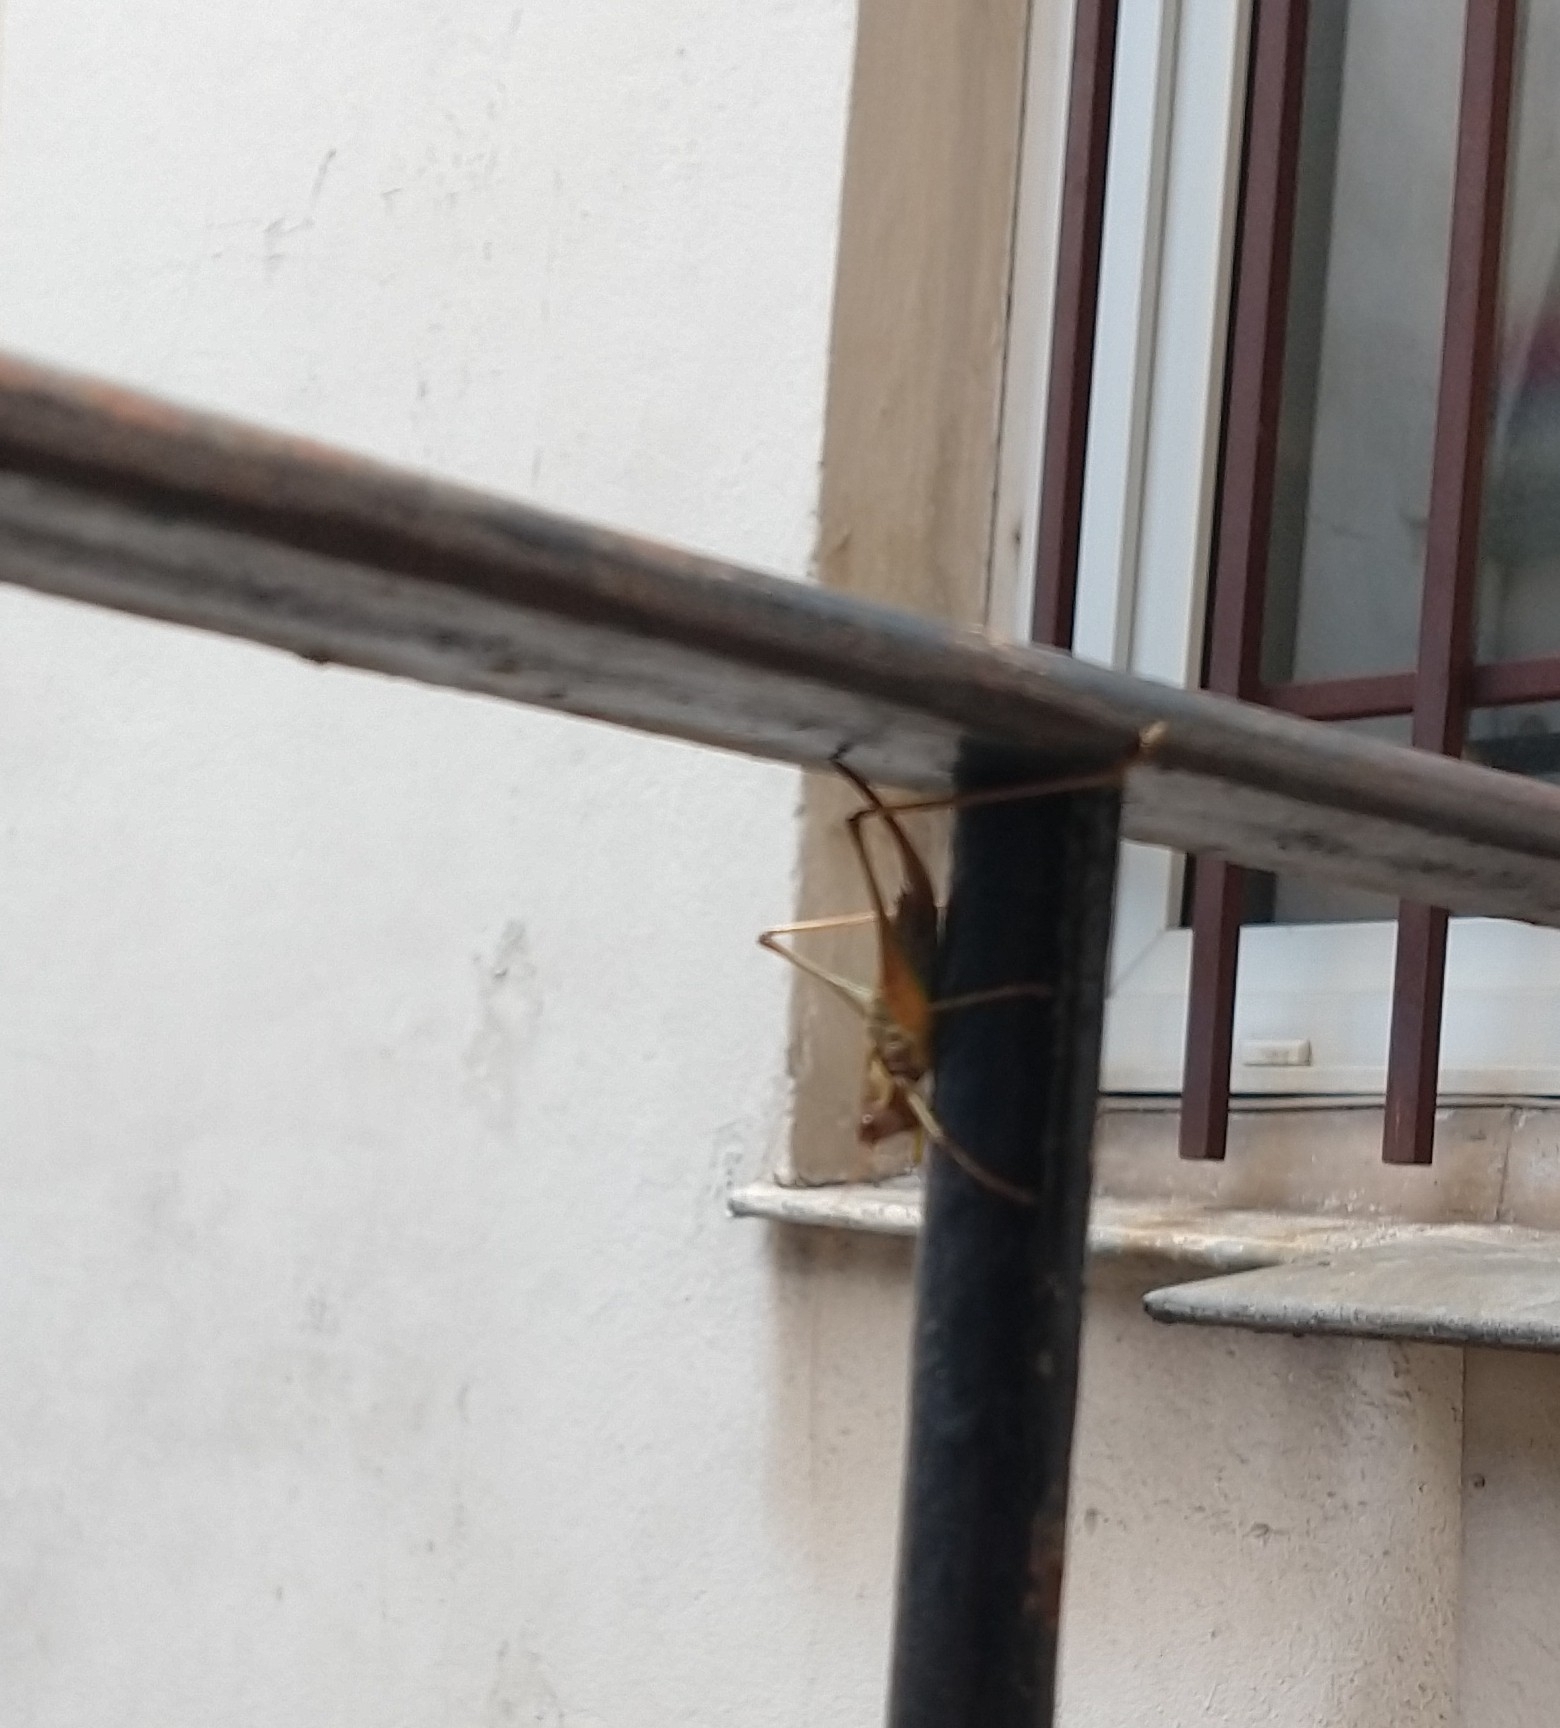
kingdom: Animalia
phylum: Arthropoda
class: Insecta
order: Orthoptera
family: Tettigoniidae
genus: Rhacocleis
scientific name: Rhacocleis annulata
